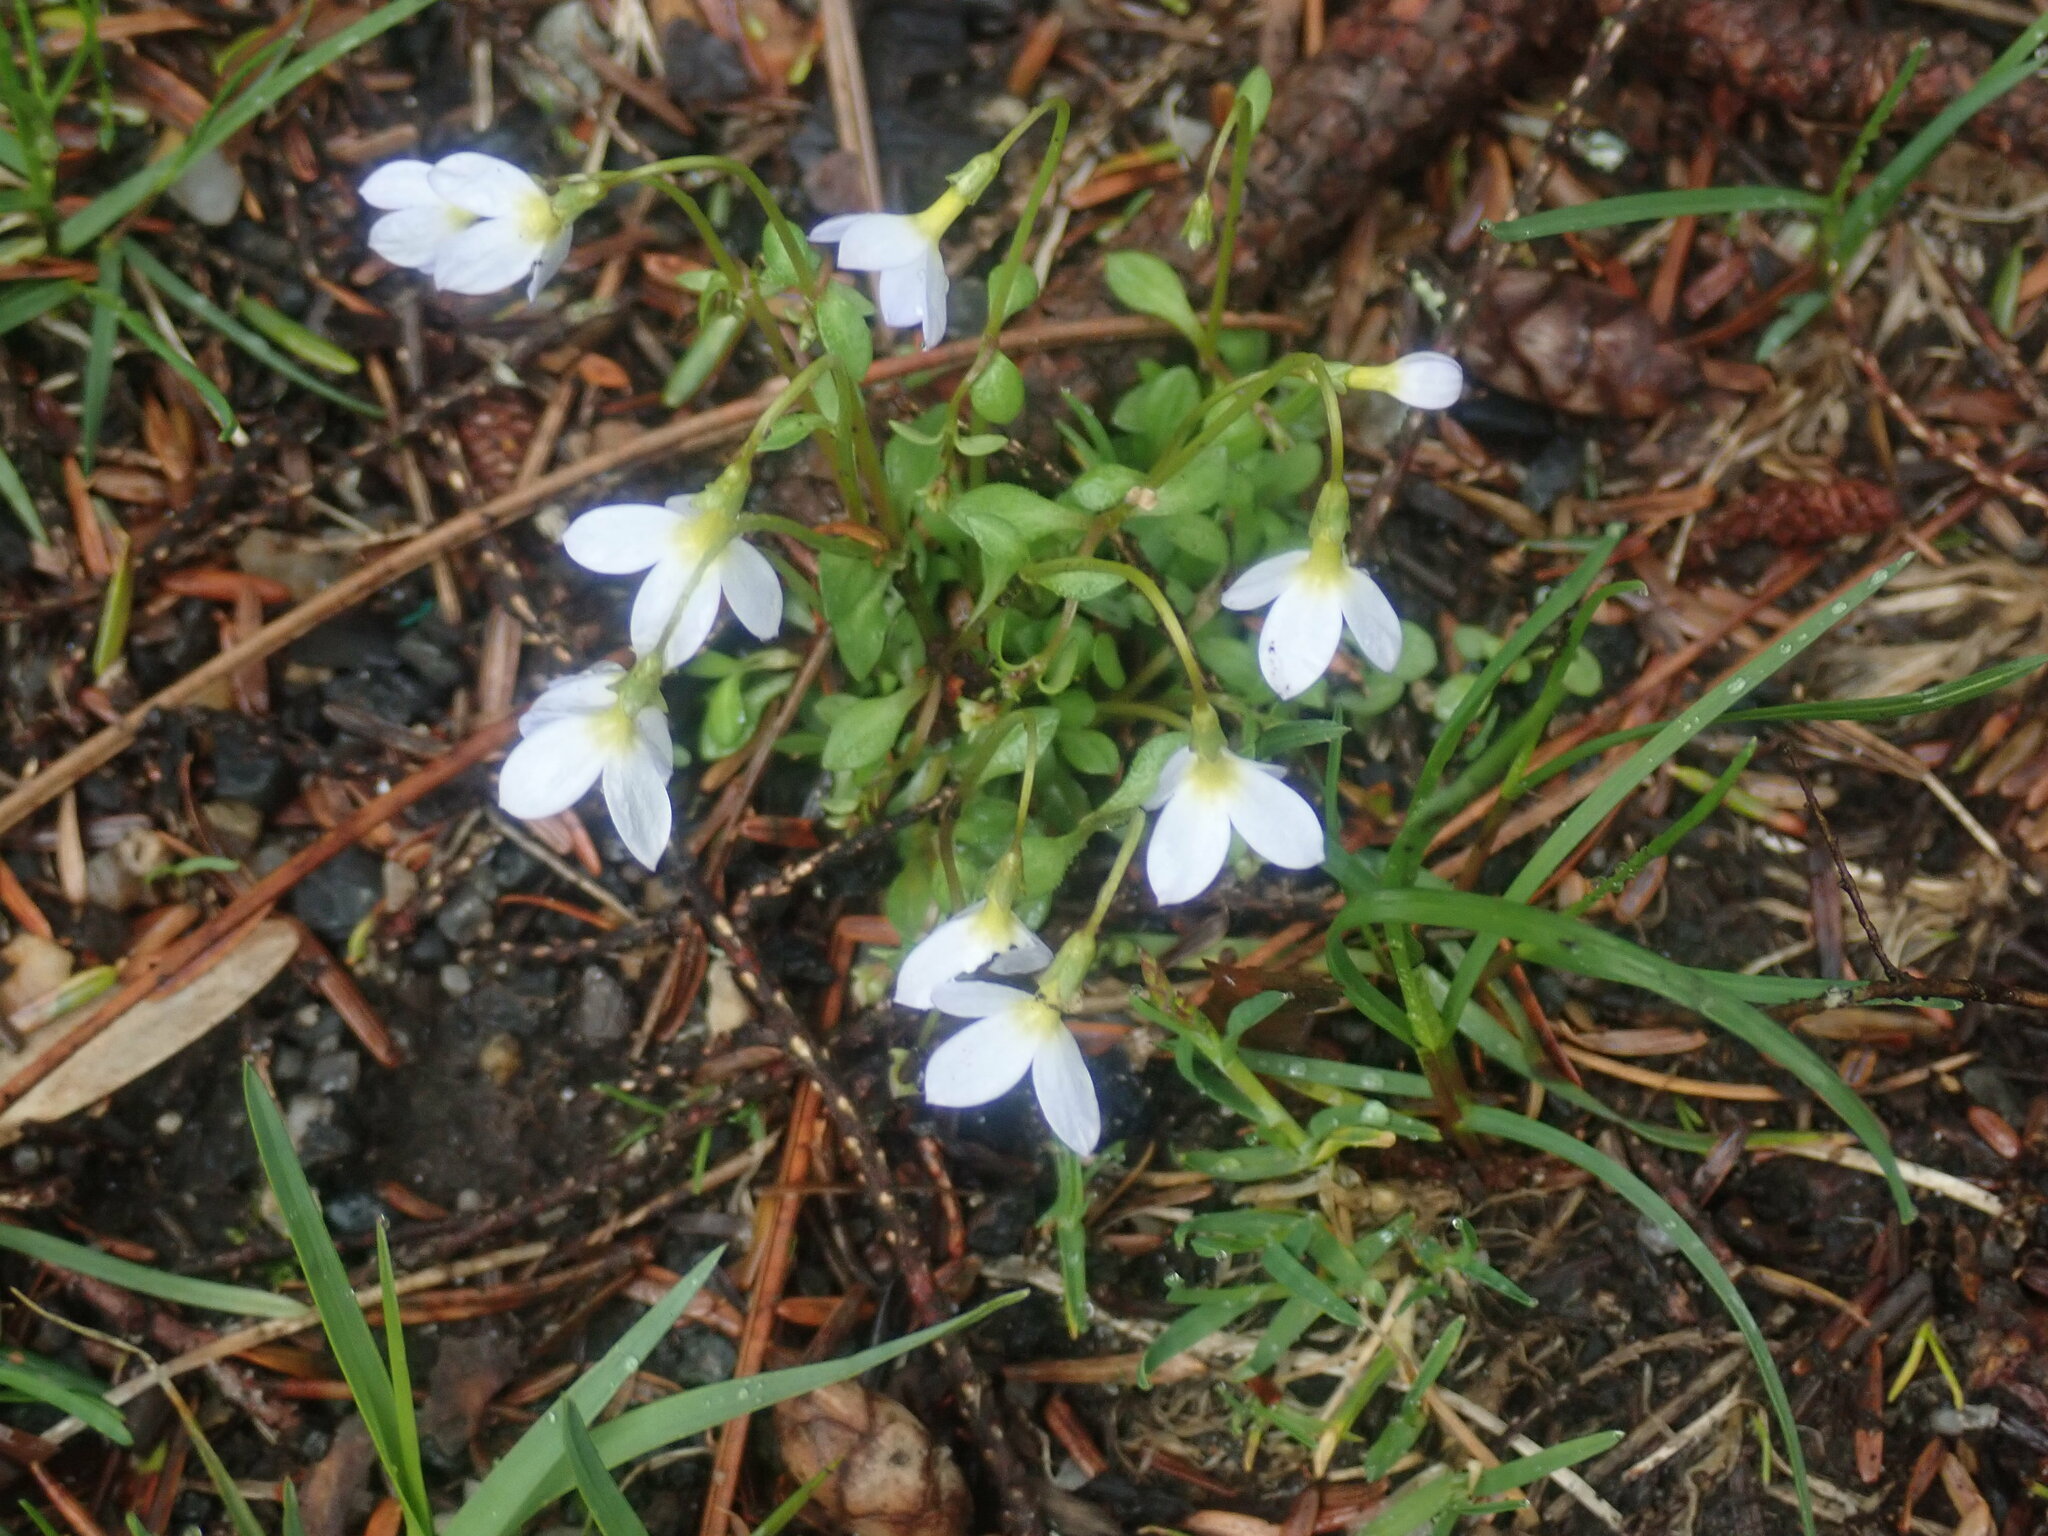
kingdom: Plantae
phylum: Tracheophyta
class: Magnoliopsida
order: Gentianales
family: Rubiaceae
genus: Houstonia
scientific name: Houstonia caerulea
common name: Bluets
